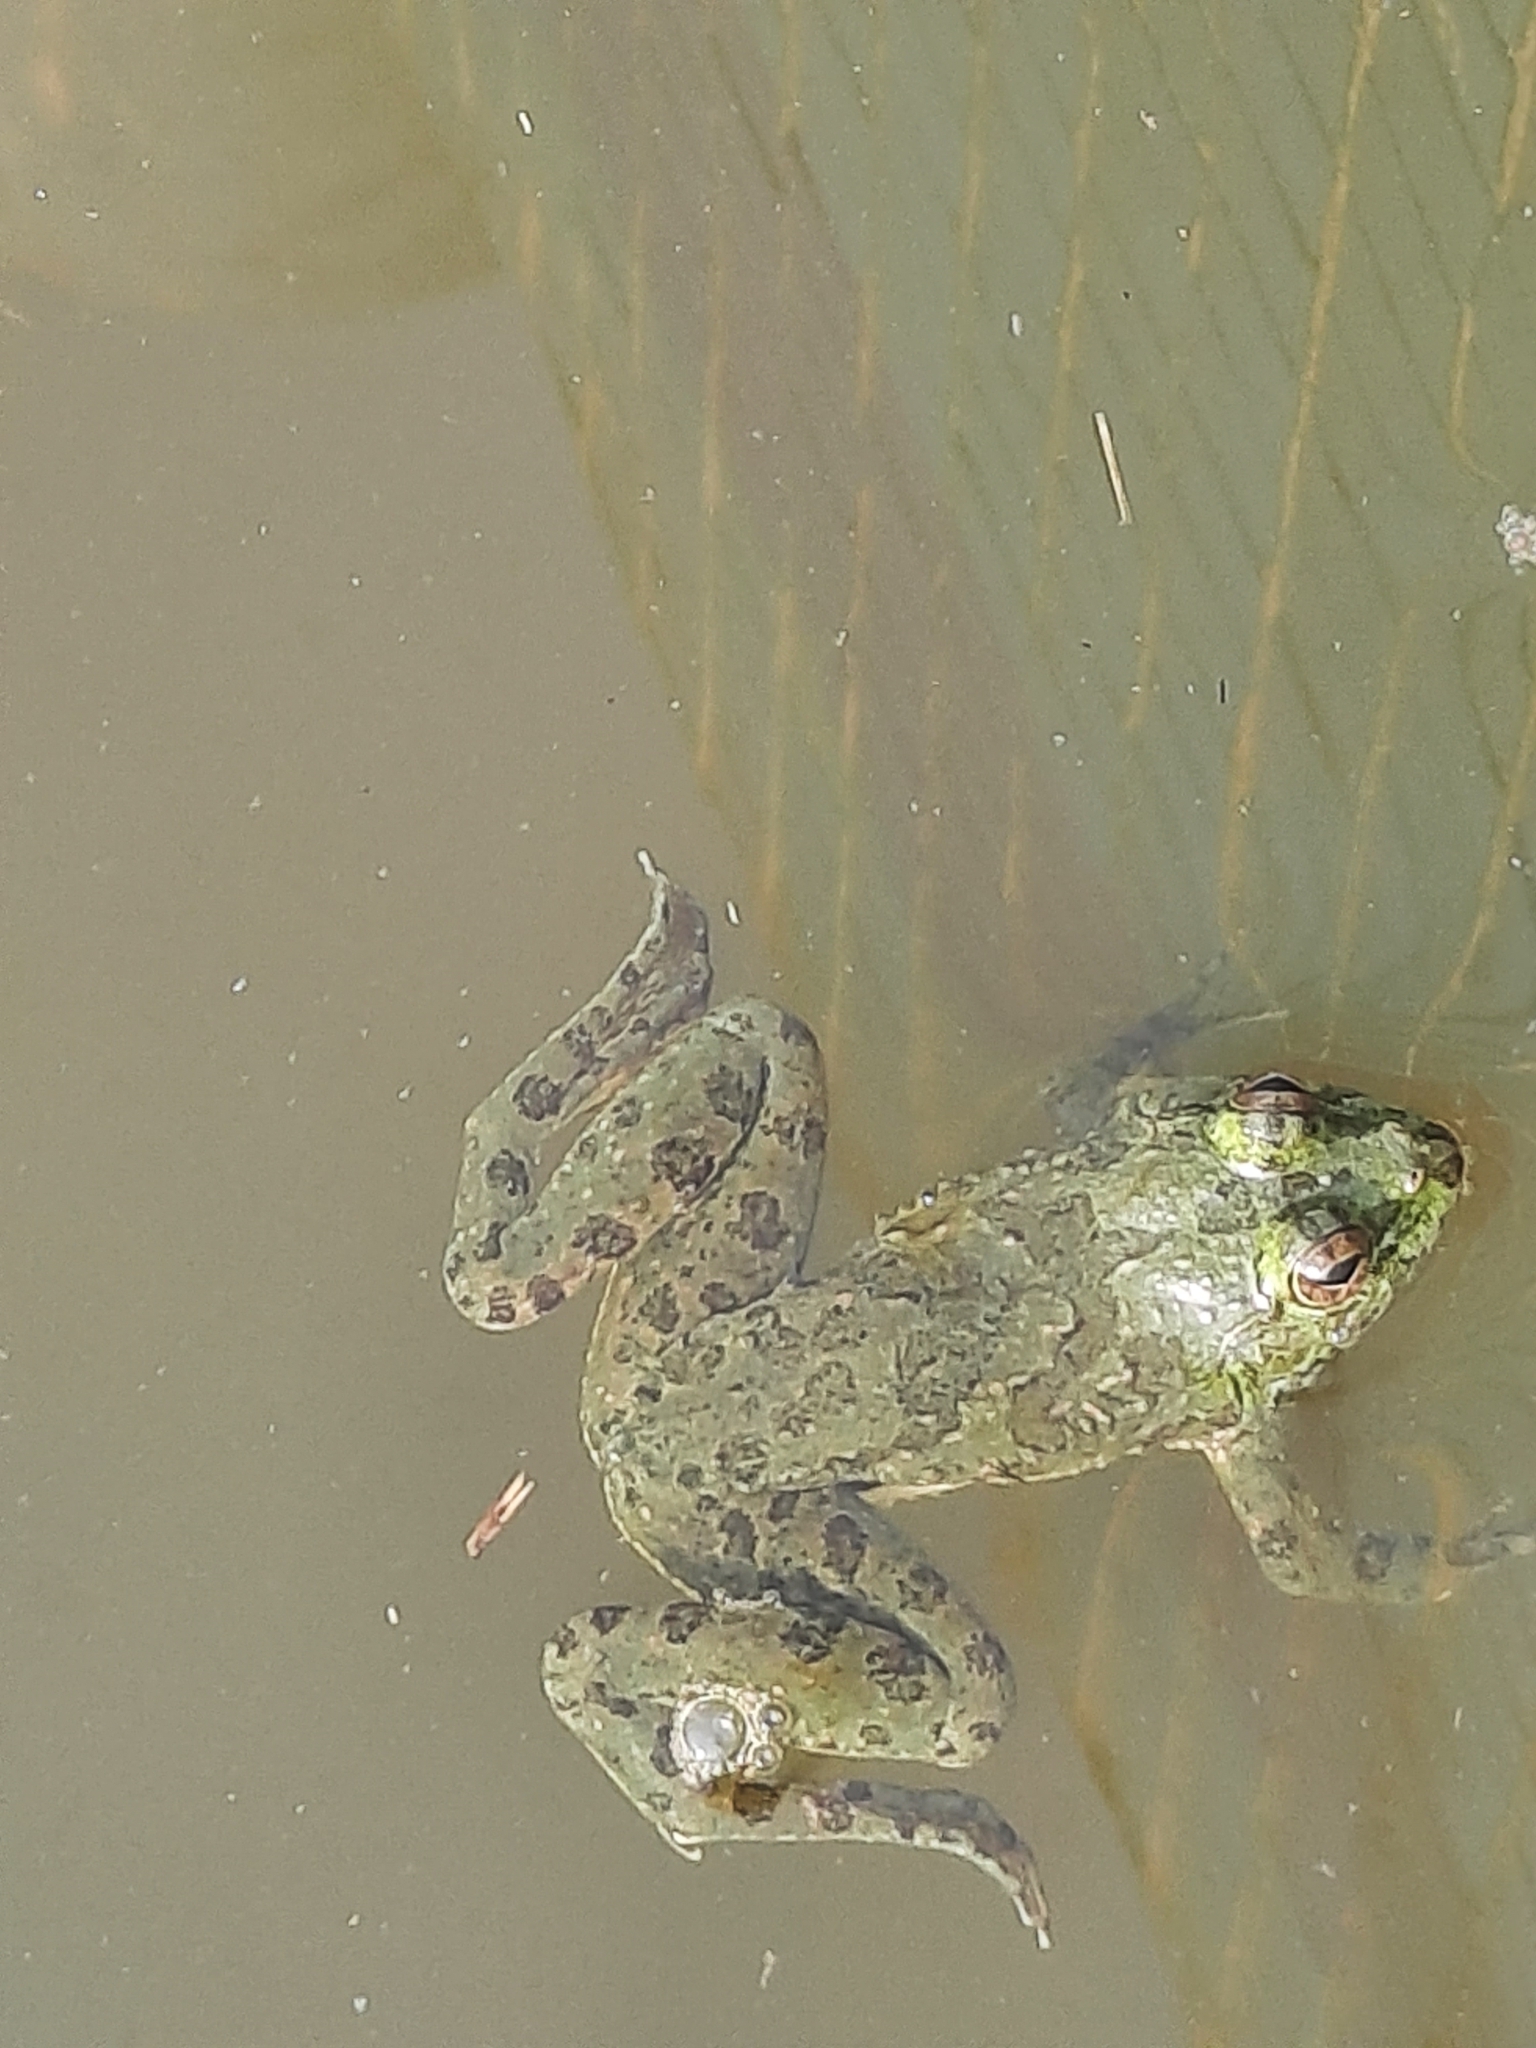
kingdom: Animalia
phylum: Chordata
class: Amphibia
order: Anura
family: Dicroglossidae
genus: Euphlyctis
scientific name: Euphlyctis cyanophlyctis
